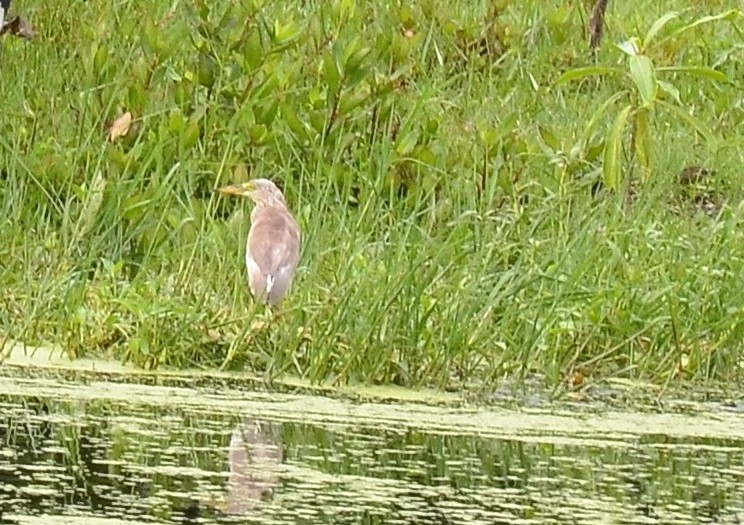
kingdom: Animalia
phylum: Chordata
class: Aves
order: Pelecaniformes
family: Ardeidae
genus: Ardeola
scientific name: Ardeola grayii
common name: Indian pond heron
